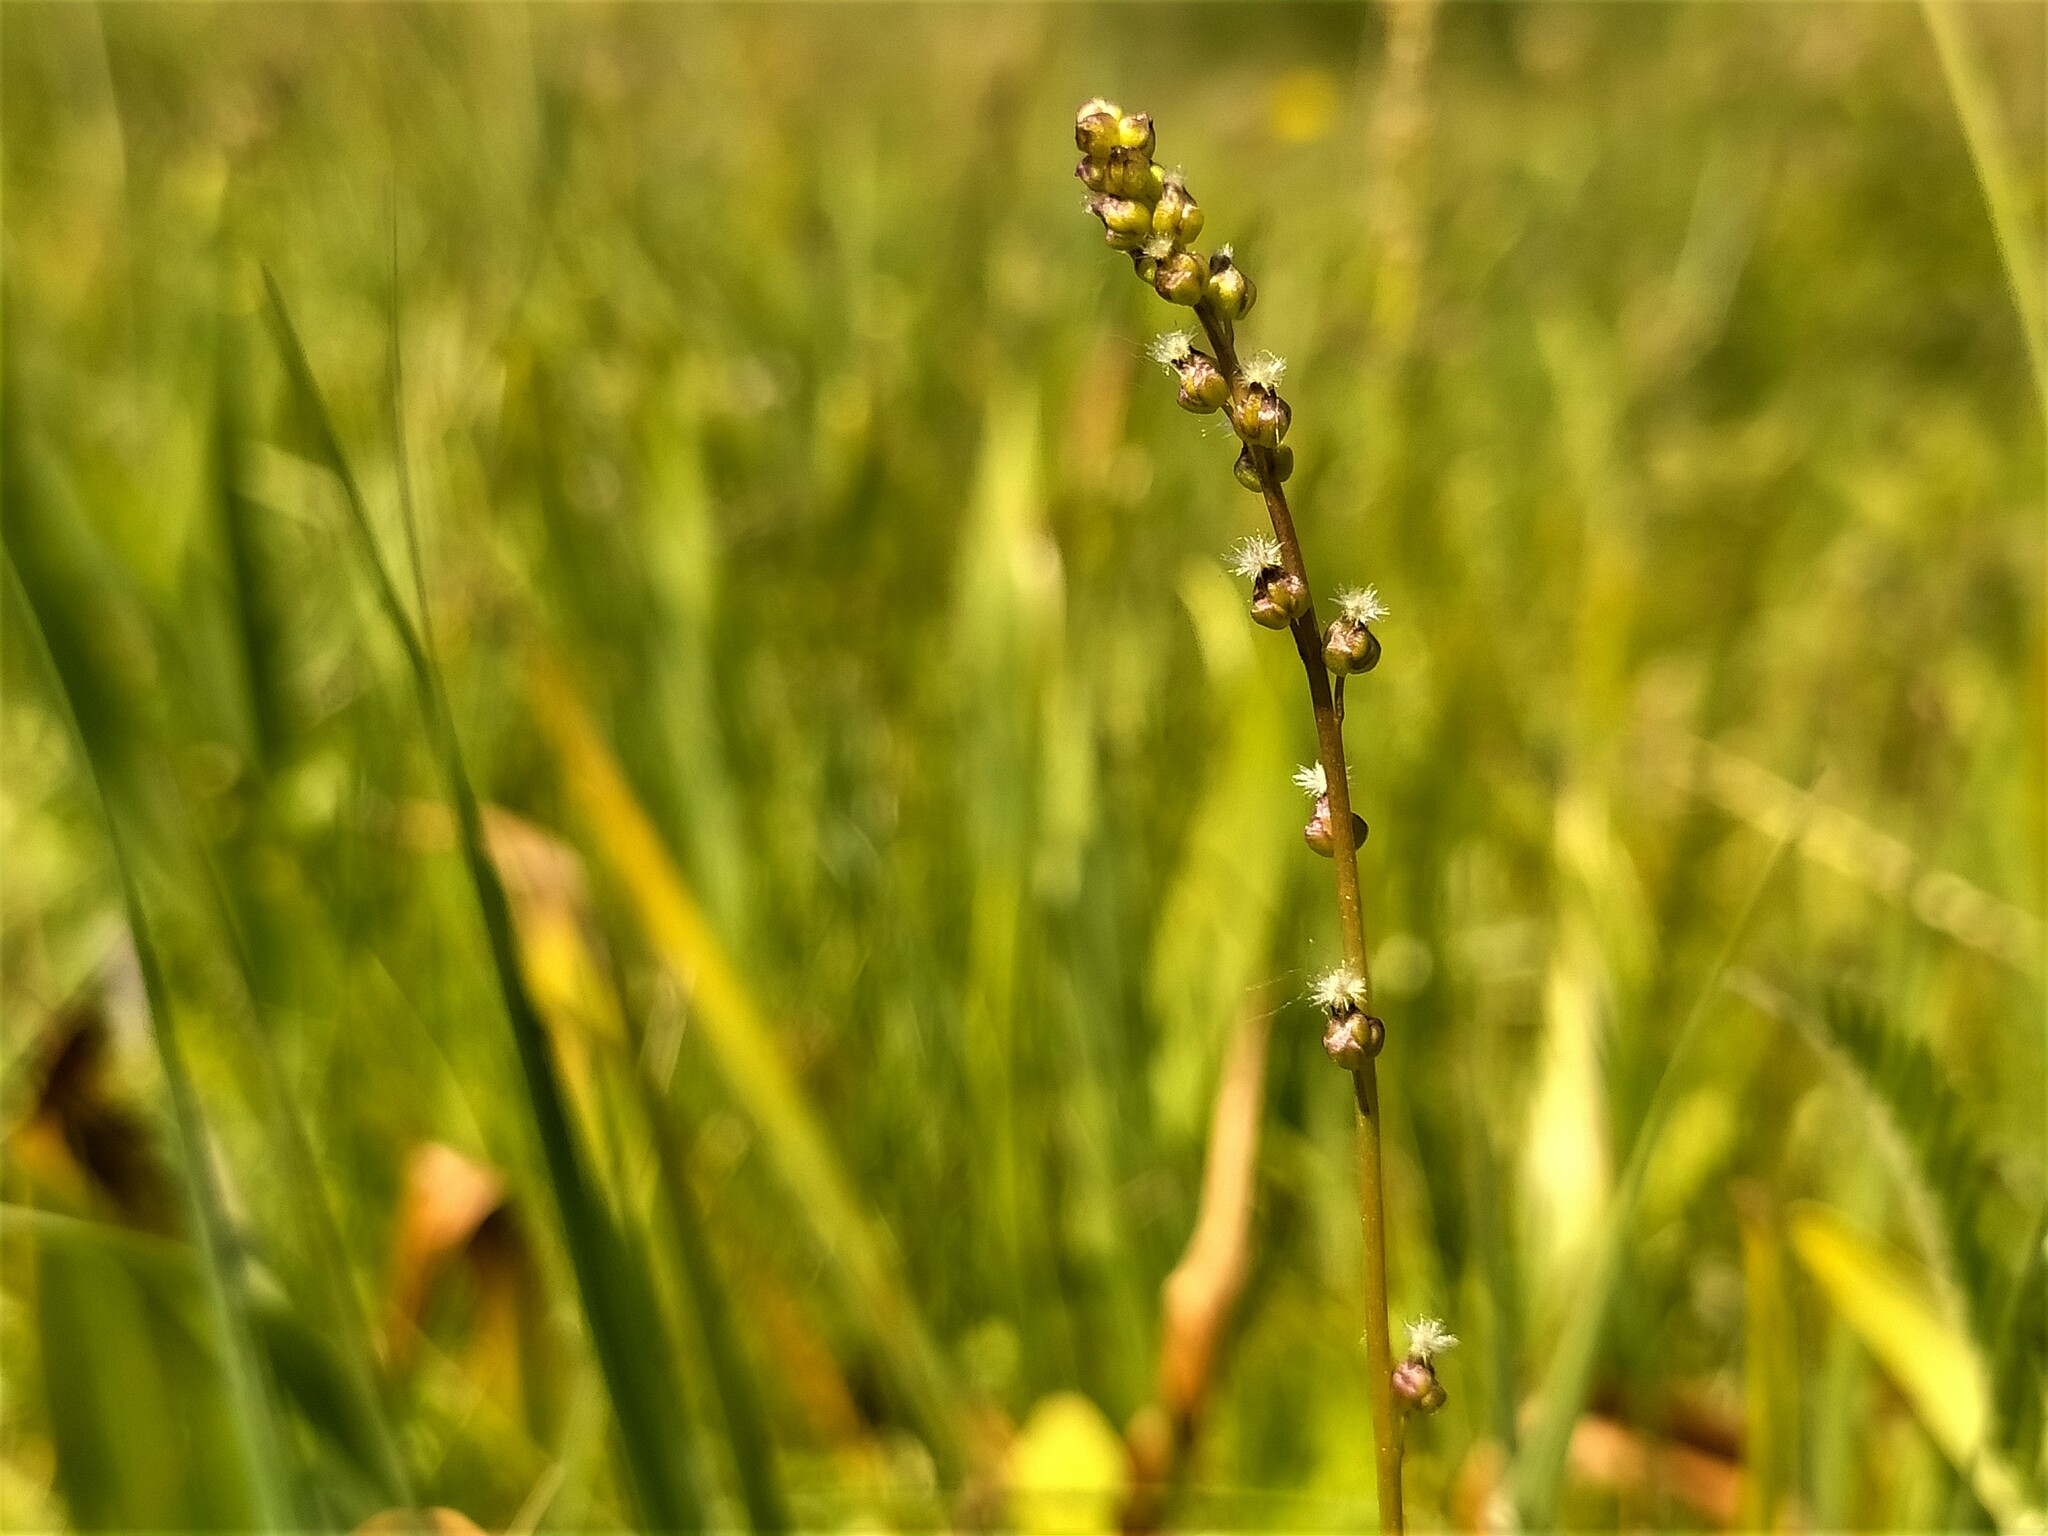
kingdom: Plantae
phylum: Tracheophyta
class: Liliopsida
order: Alismatales
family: Juncaginaceae
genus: Triglochin
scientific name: Triglochin palustris
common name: Marsh arrowgrass
